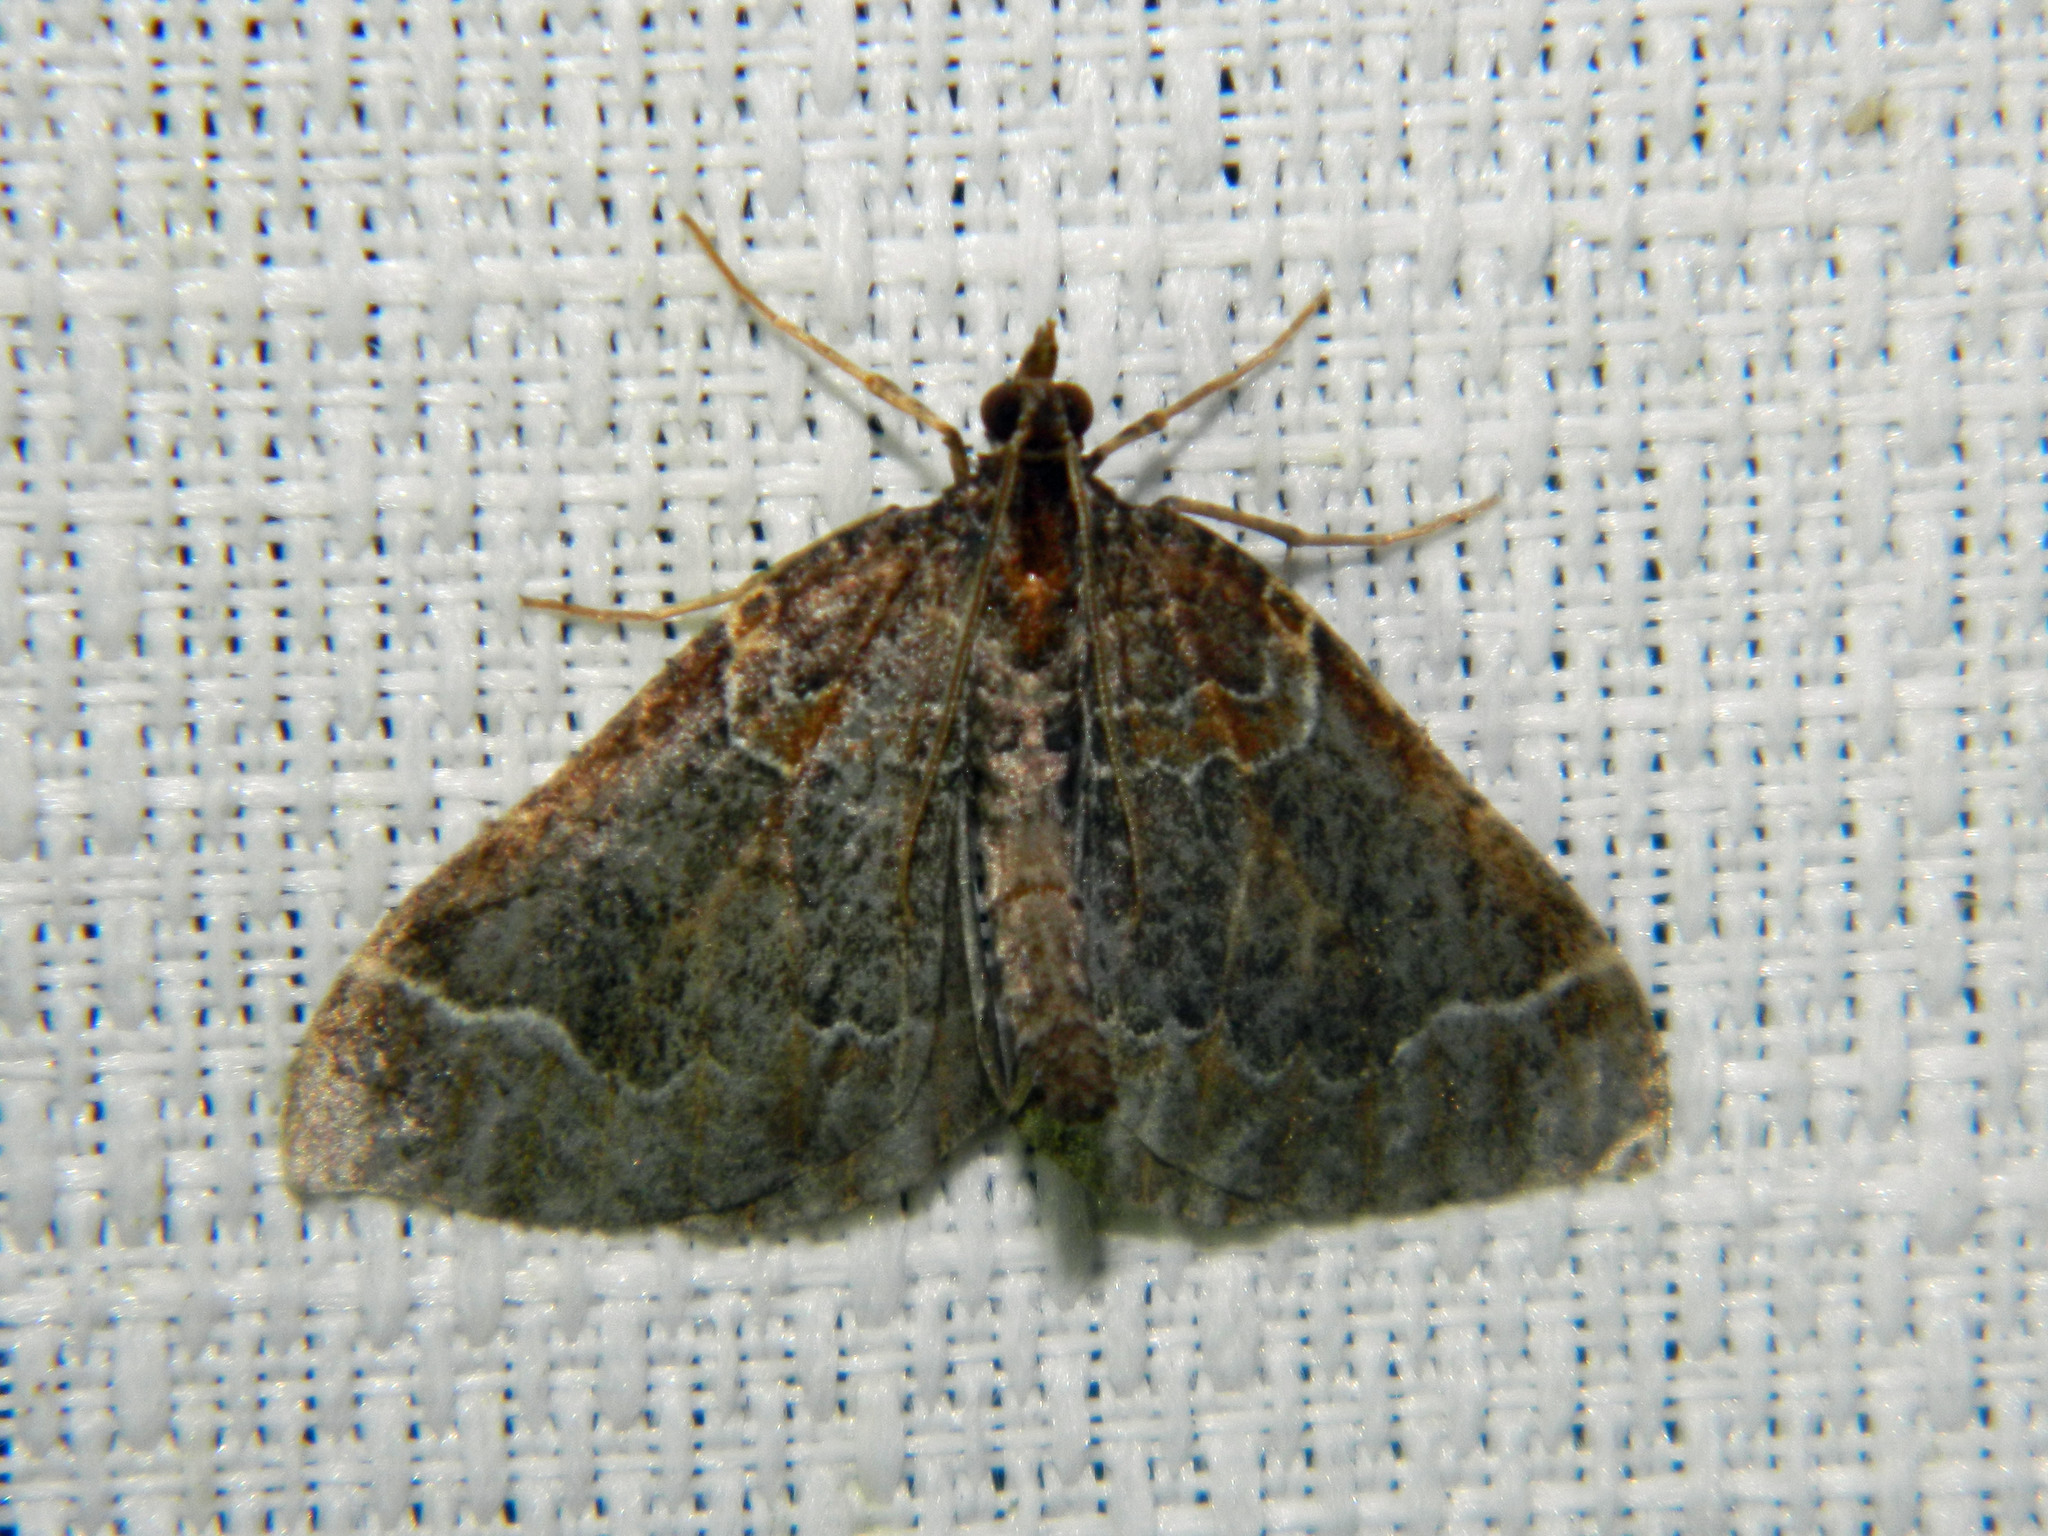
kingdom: Animalia
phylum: Arthropoda
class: Insecta
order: Lepidoptera
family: Geometridae
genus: Eulithis
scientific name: Eulithis flavibrunneata
